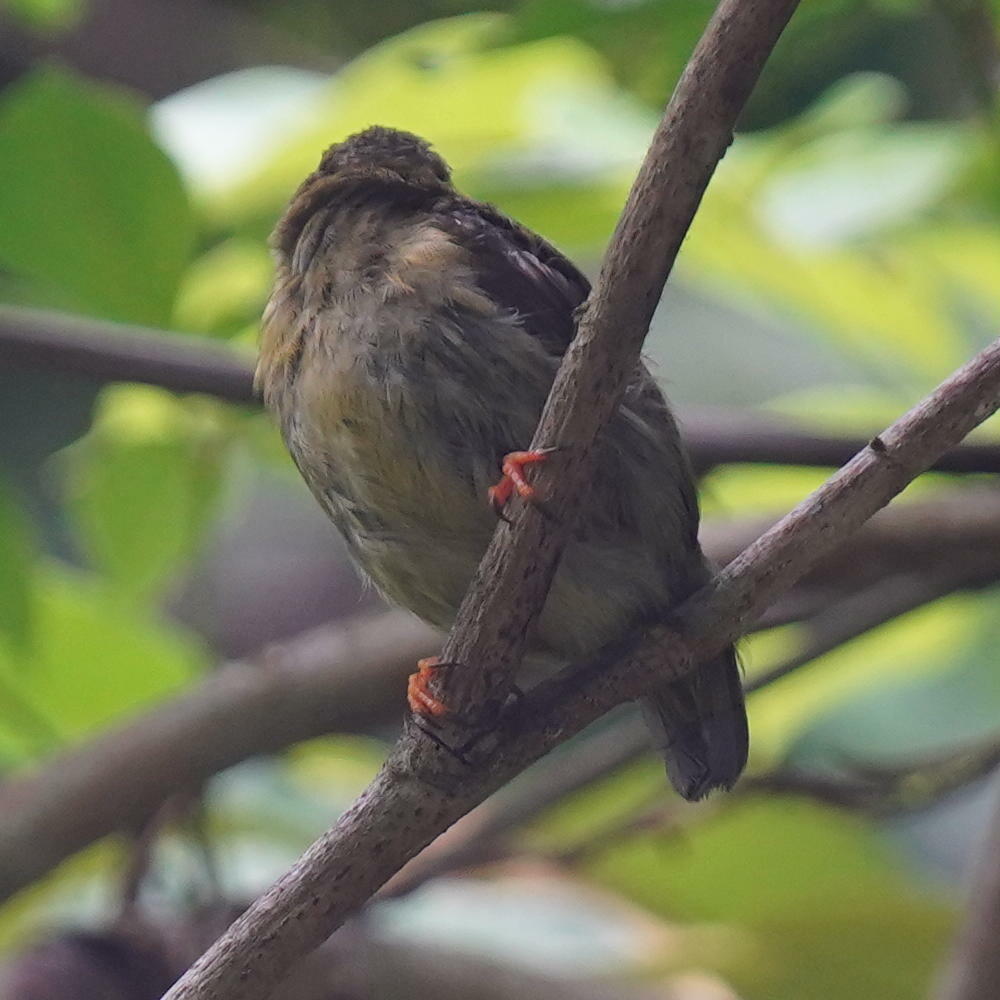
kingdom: Animalia
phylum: Chordata
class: Aves
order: Passeriformes
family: Pipridae
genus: Manacus
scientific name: Manacus vitellinus
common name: Golden-collared manakin
